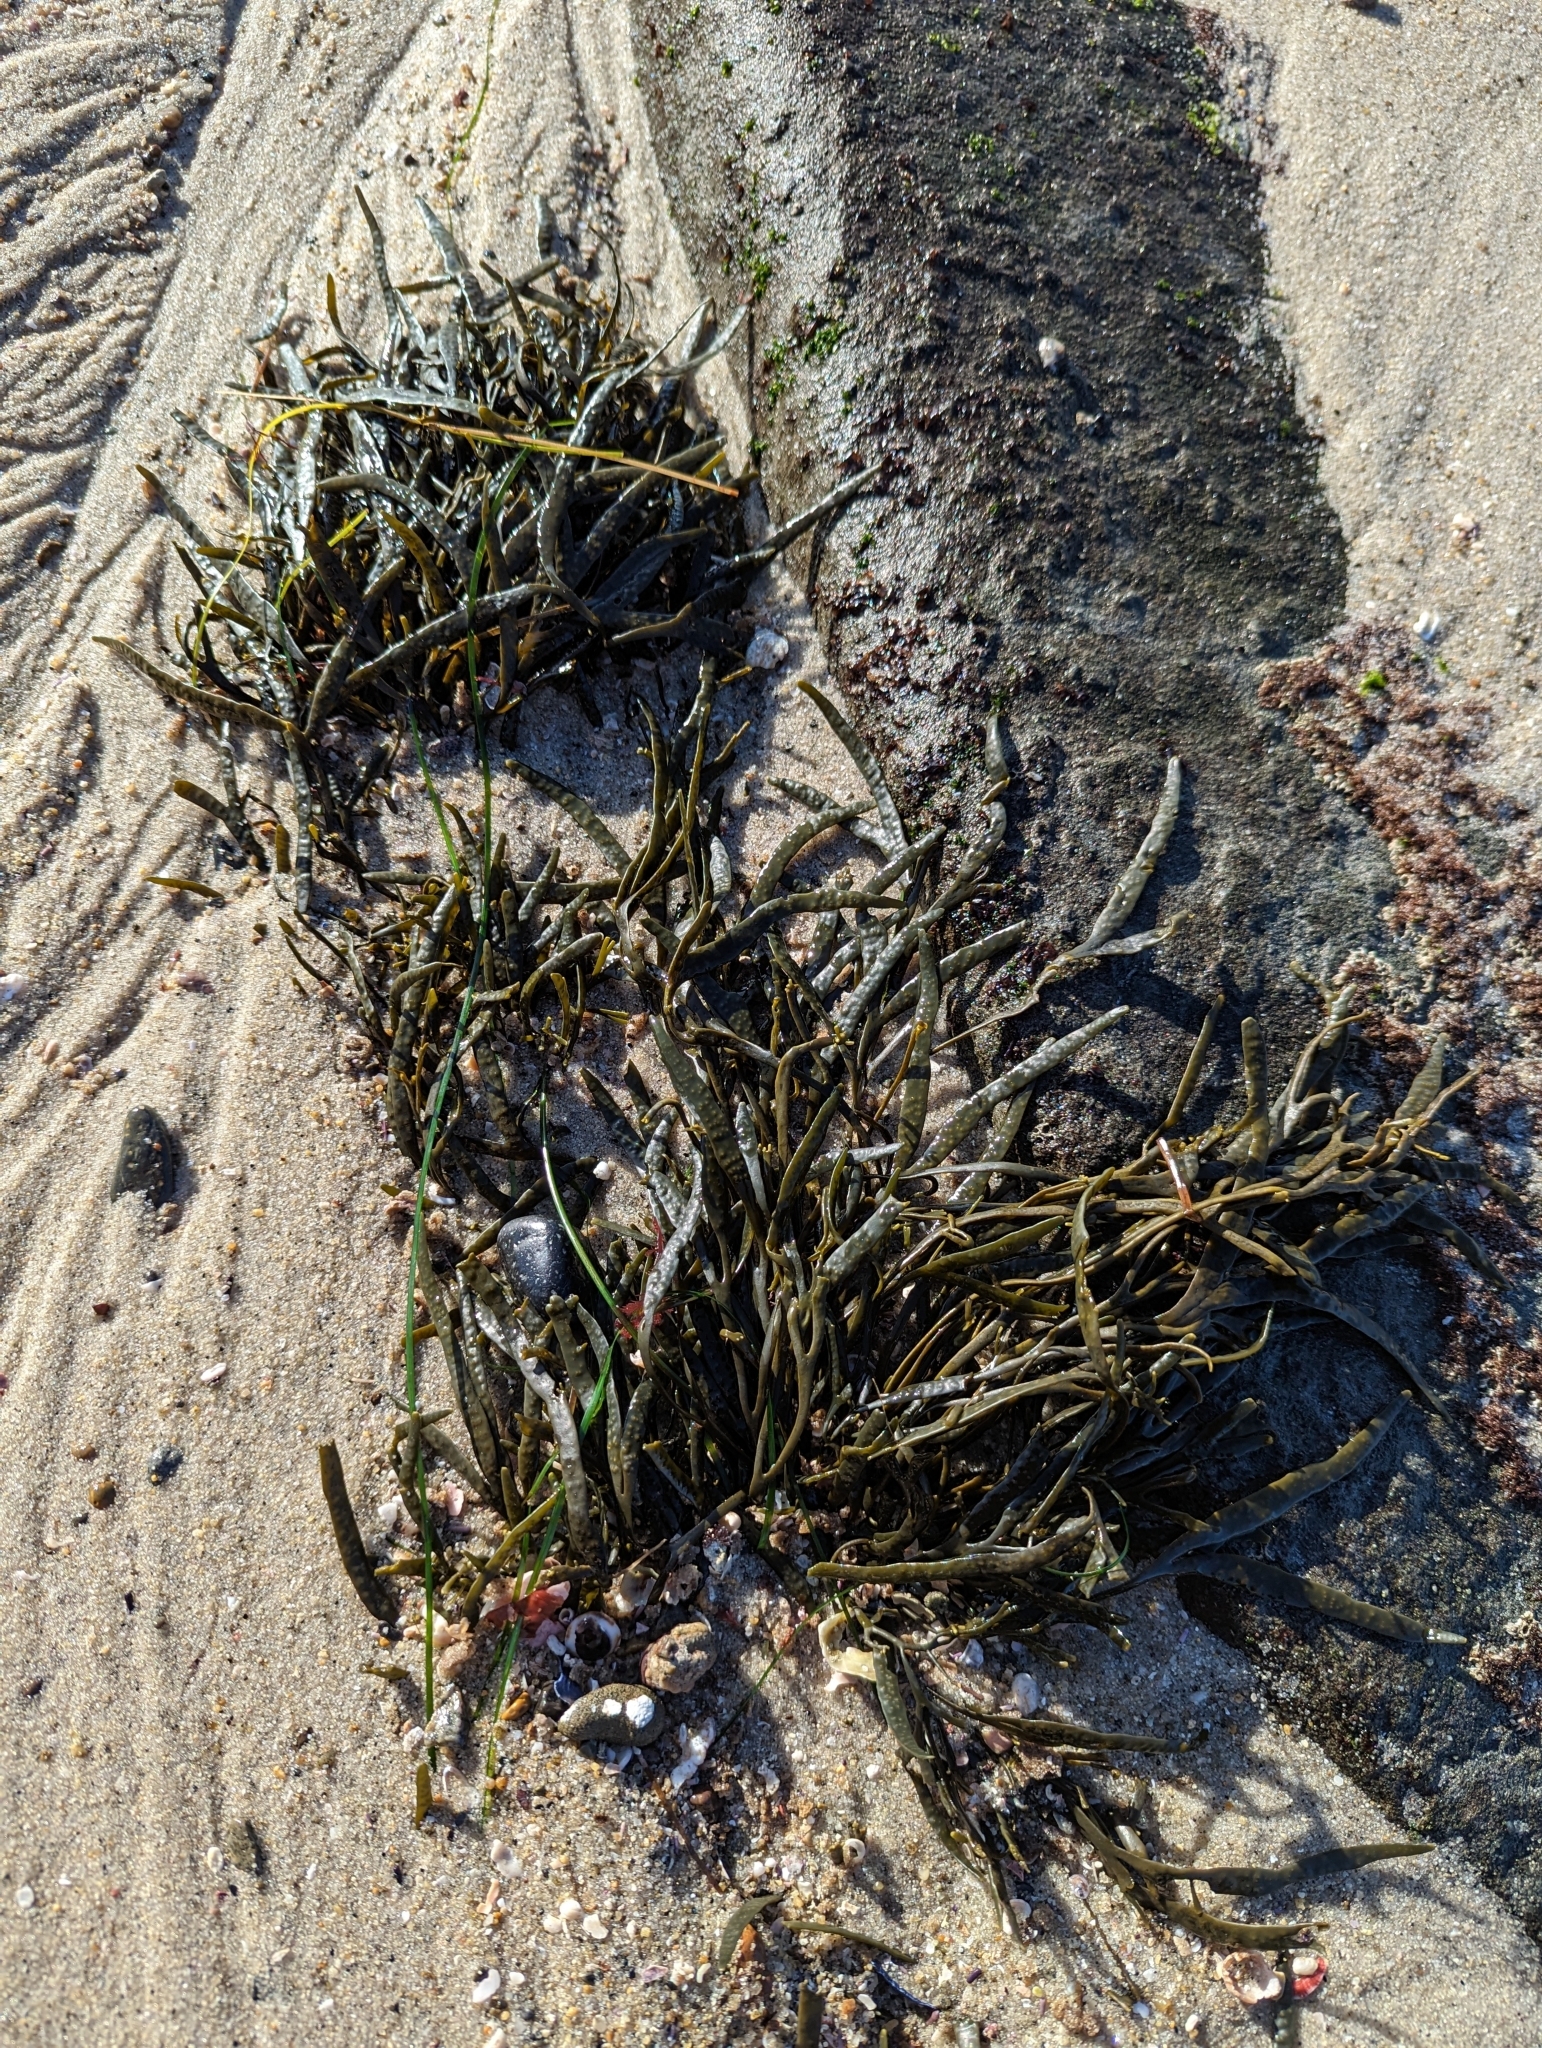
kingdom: Chromista
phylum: Ochrophyta
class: Phaeophyceae
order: Fucales
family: Fucaceae
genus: Silvetia
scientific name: Silvetia
